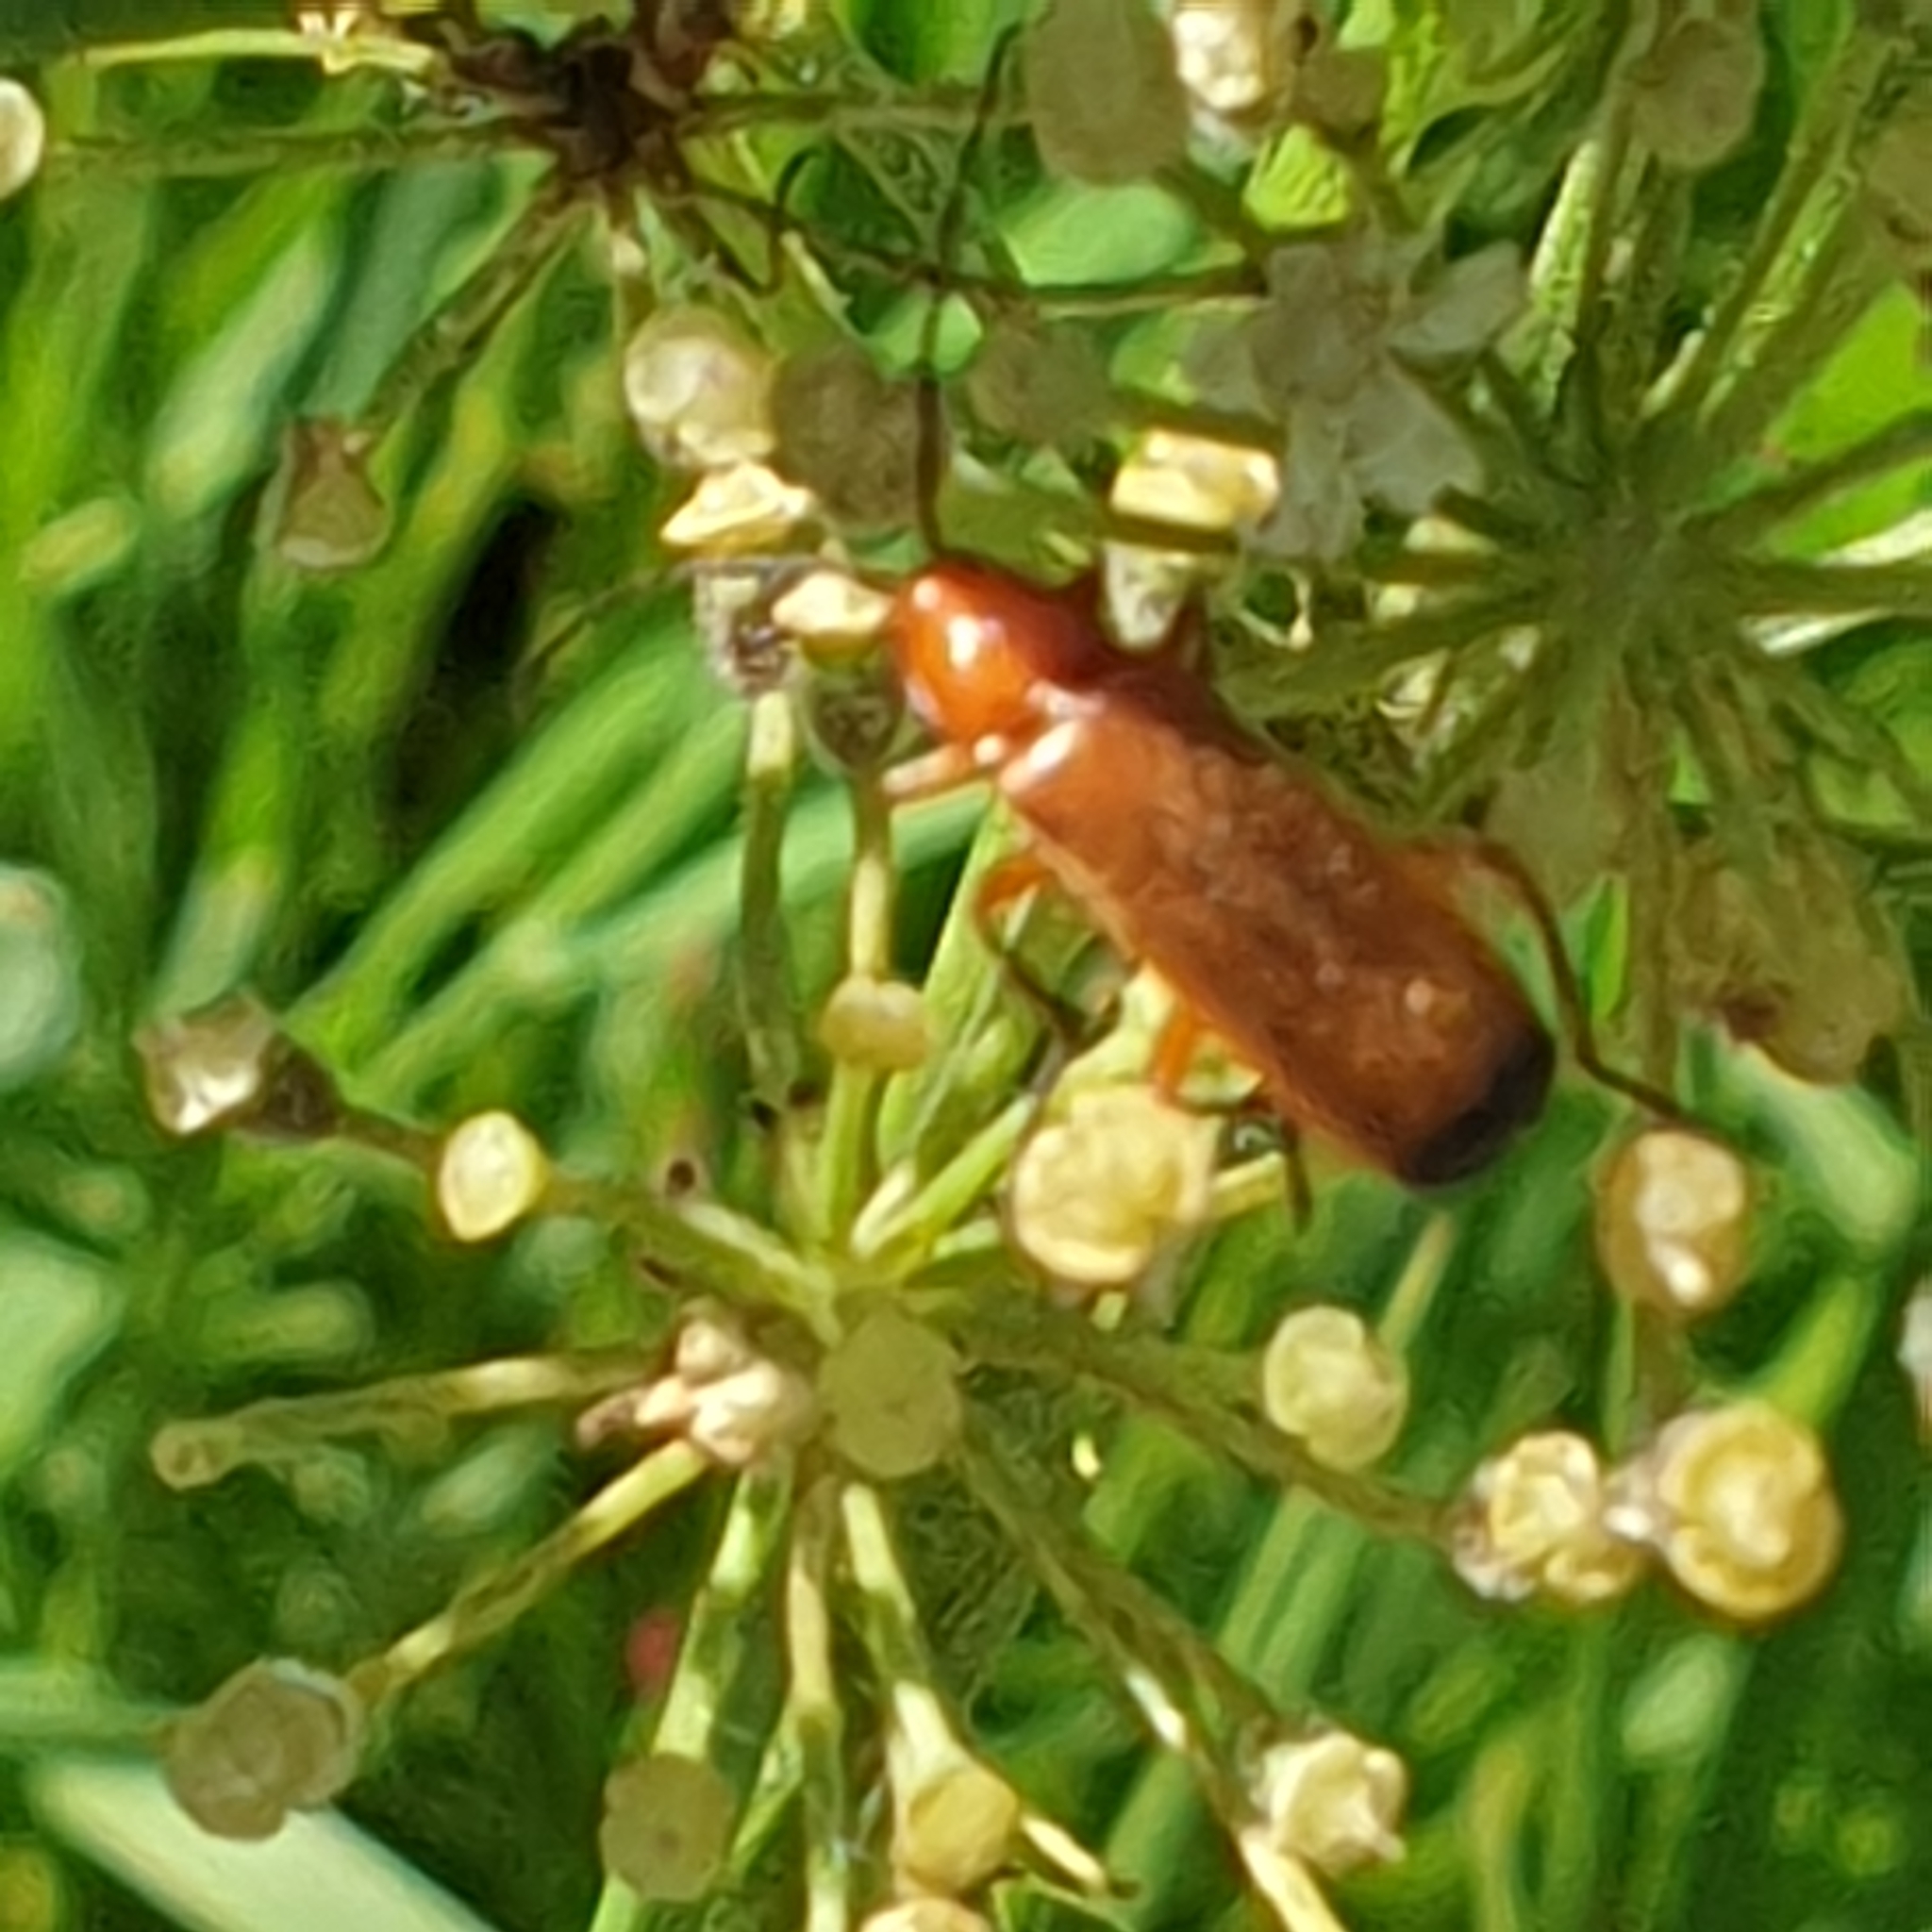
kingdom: Animalia
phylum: Arthropoda
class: Insecta
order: Coleoptera
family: Cantharidae
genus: Rhagonycha
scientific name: Rhagonycha fulva
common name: Common red soldier beetle
